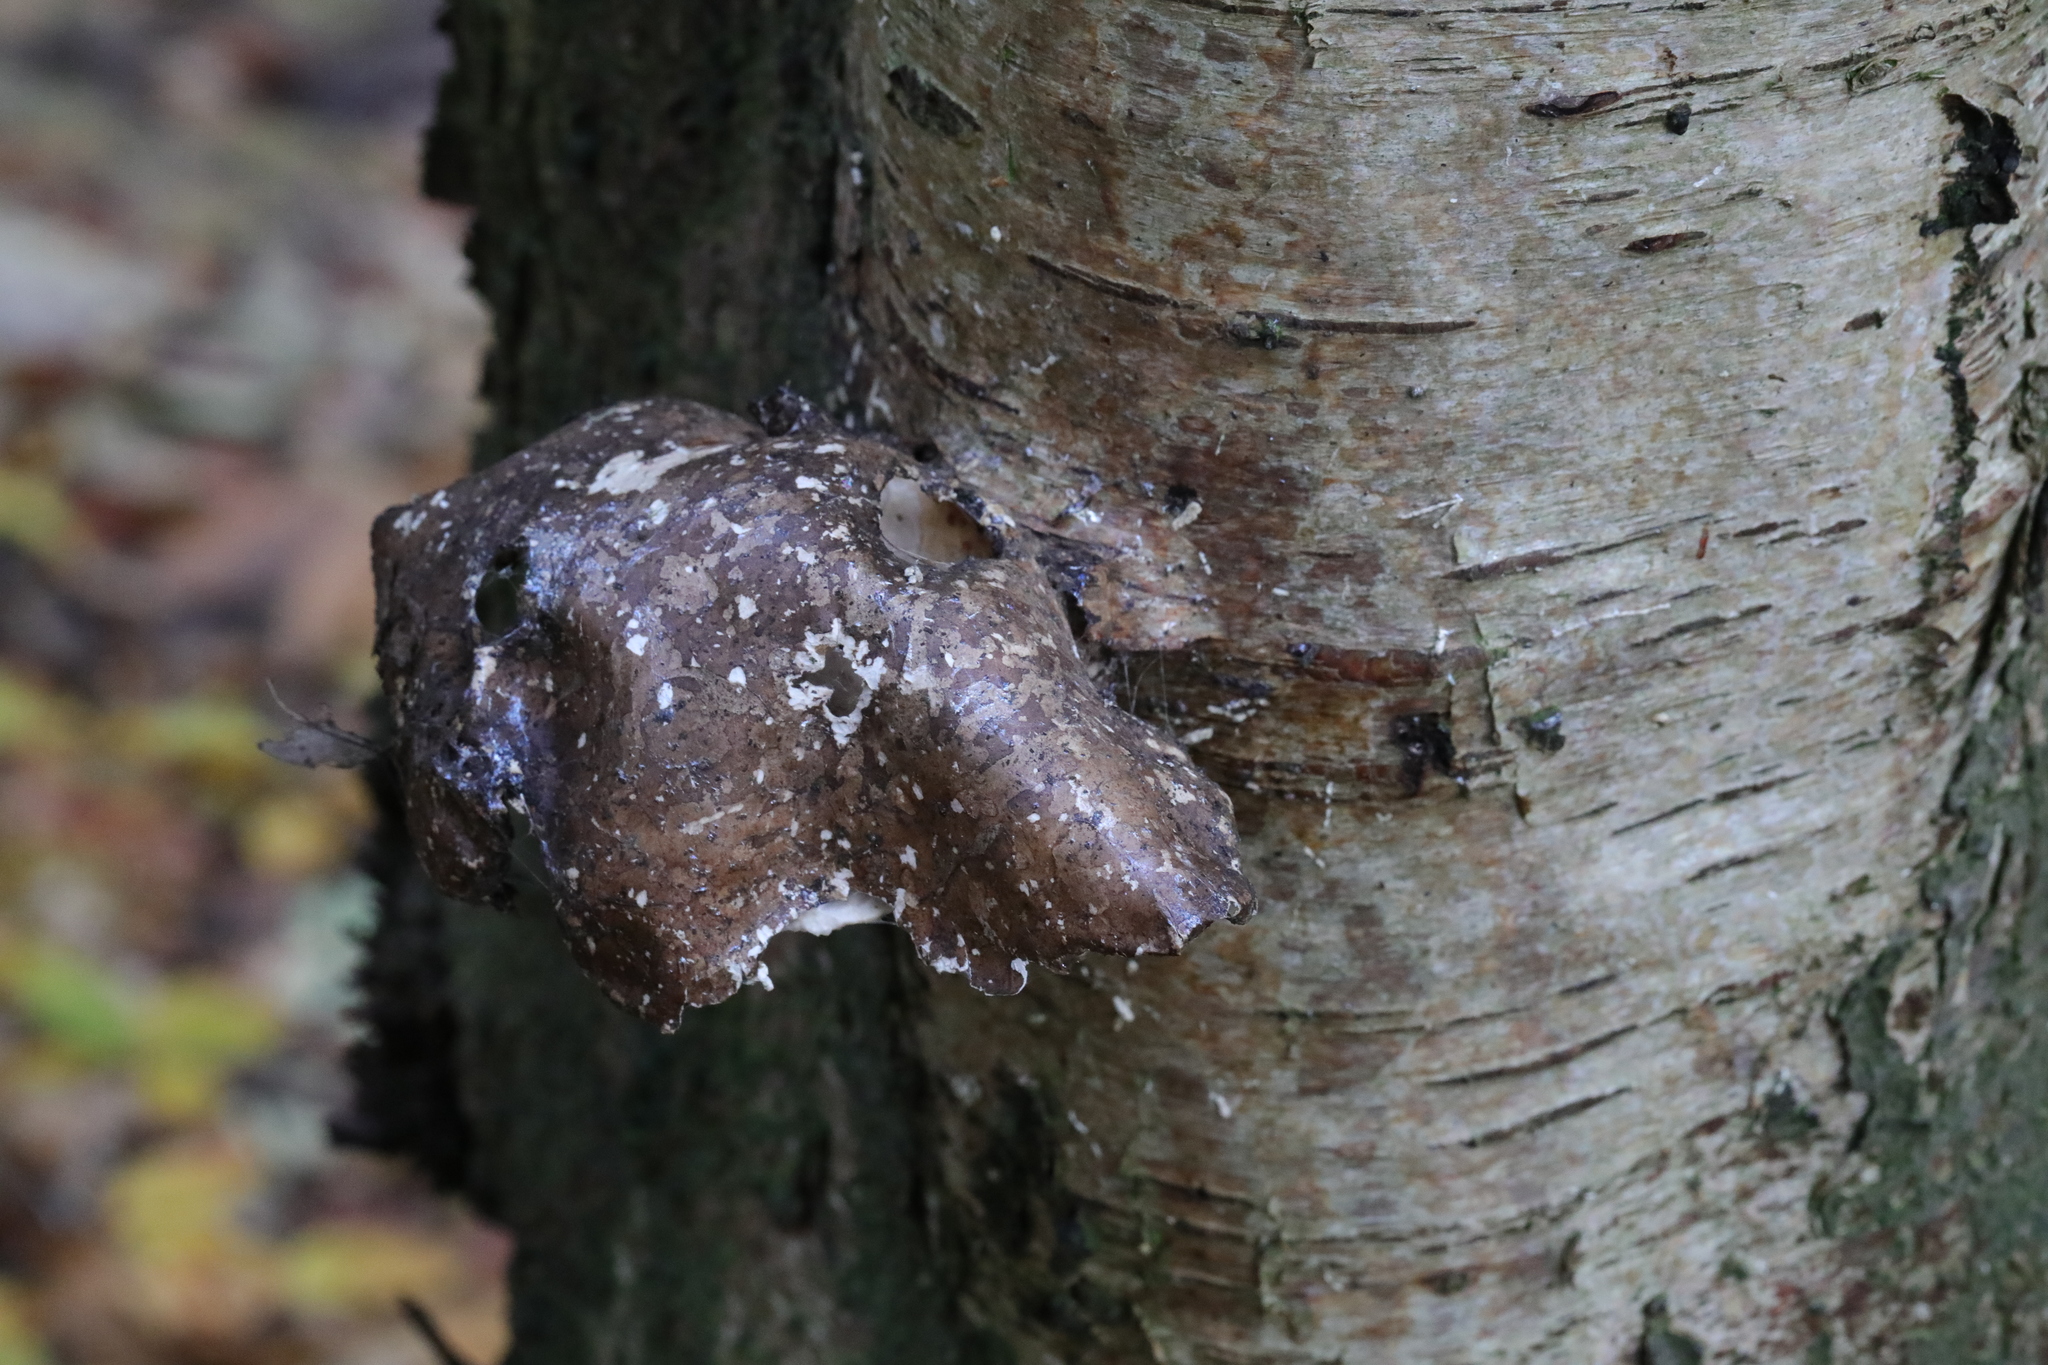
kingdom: Fungi
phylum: Basidiomycota
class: Agaricomycetes
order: Polyporales
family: Fomitopsidaceae
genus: Fomitopsis
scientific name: Fomitopsis betulina
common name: Birch polypore
